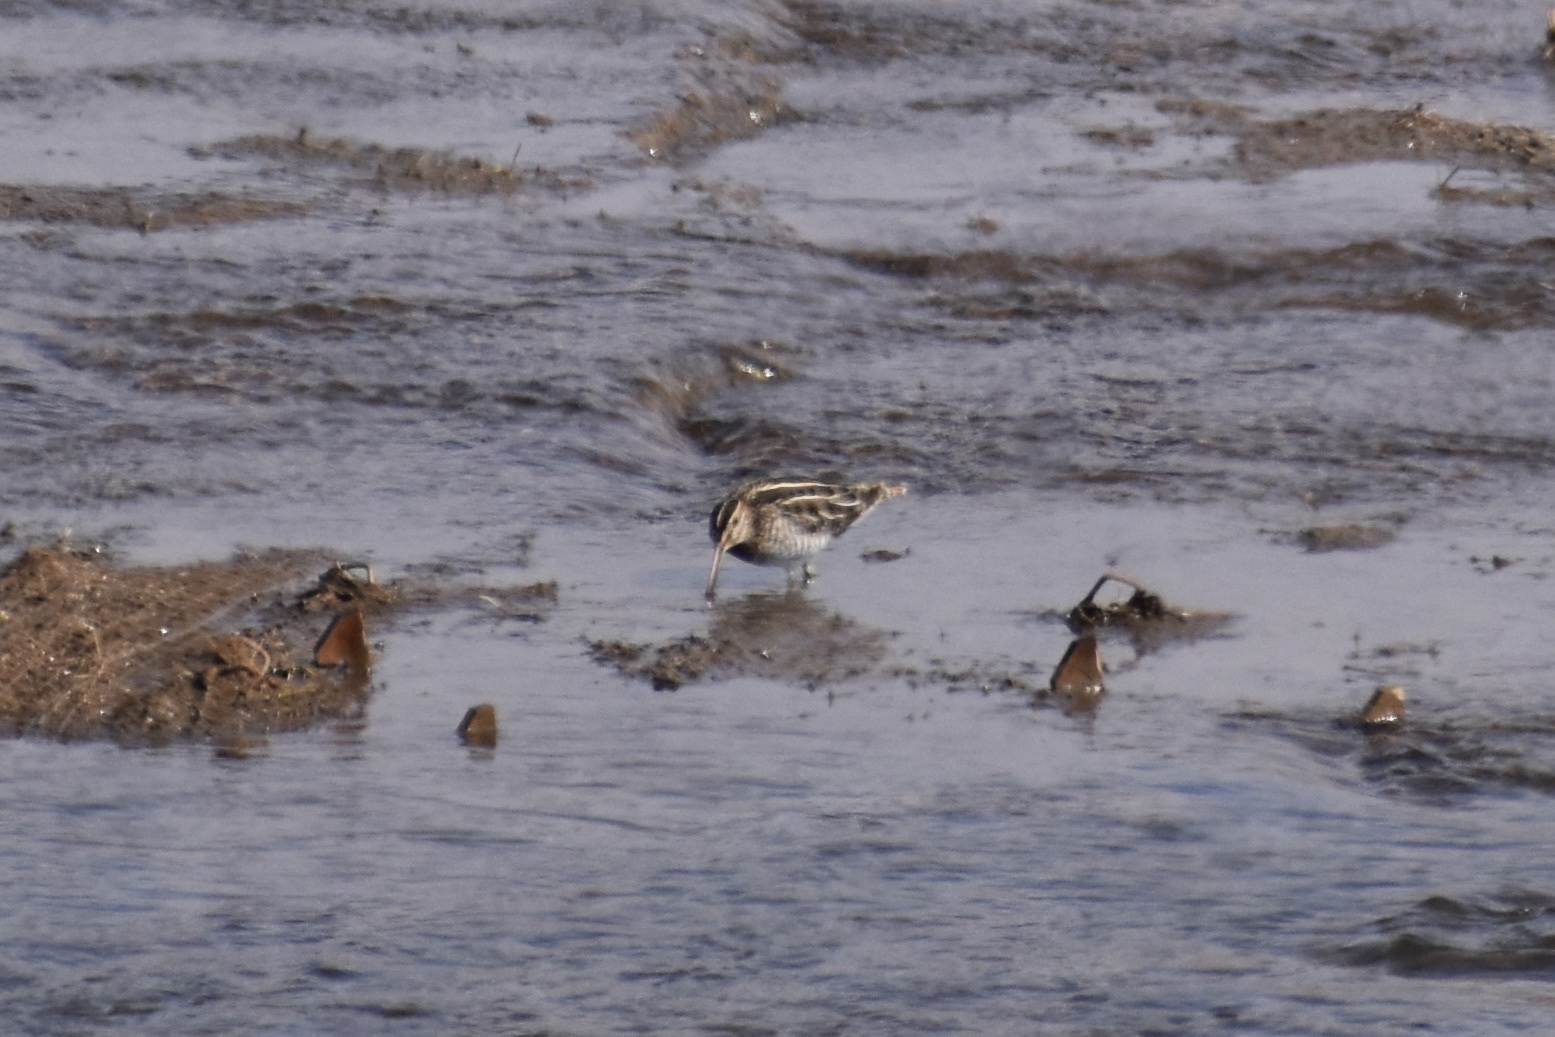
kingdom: Animalia
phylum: Chordata
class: Aves
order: Charadriiformes
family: Scolopacidae
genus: Gallinago
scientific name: Gallinago delicata
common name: Wilson's snipe
